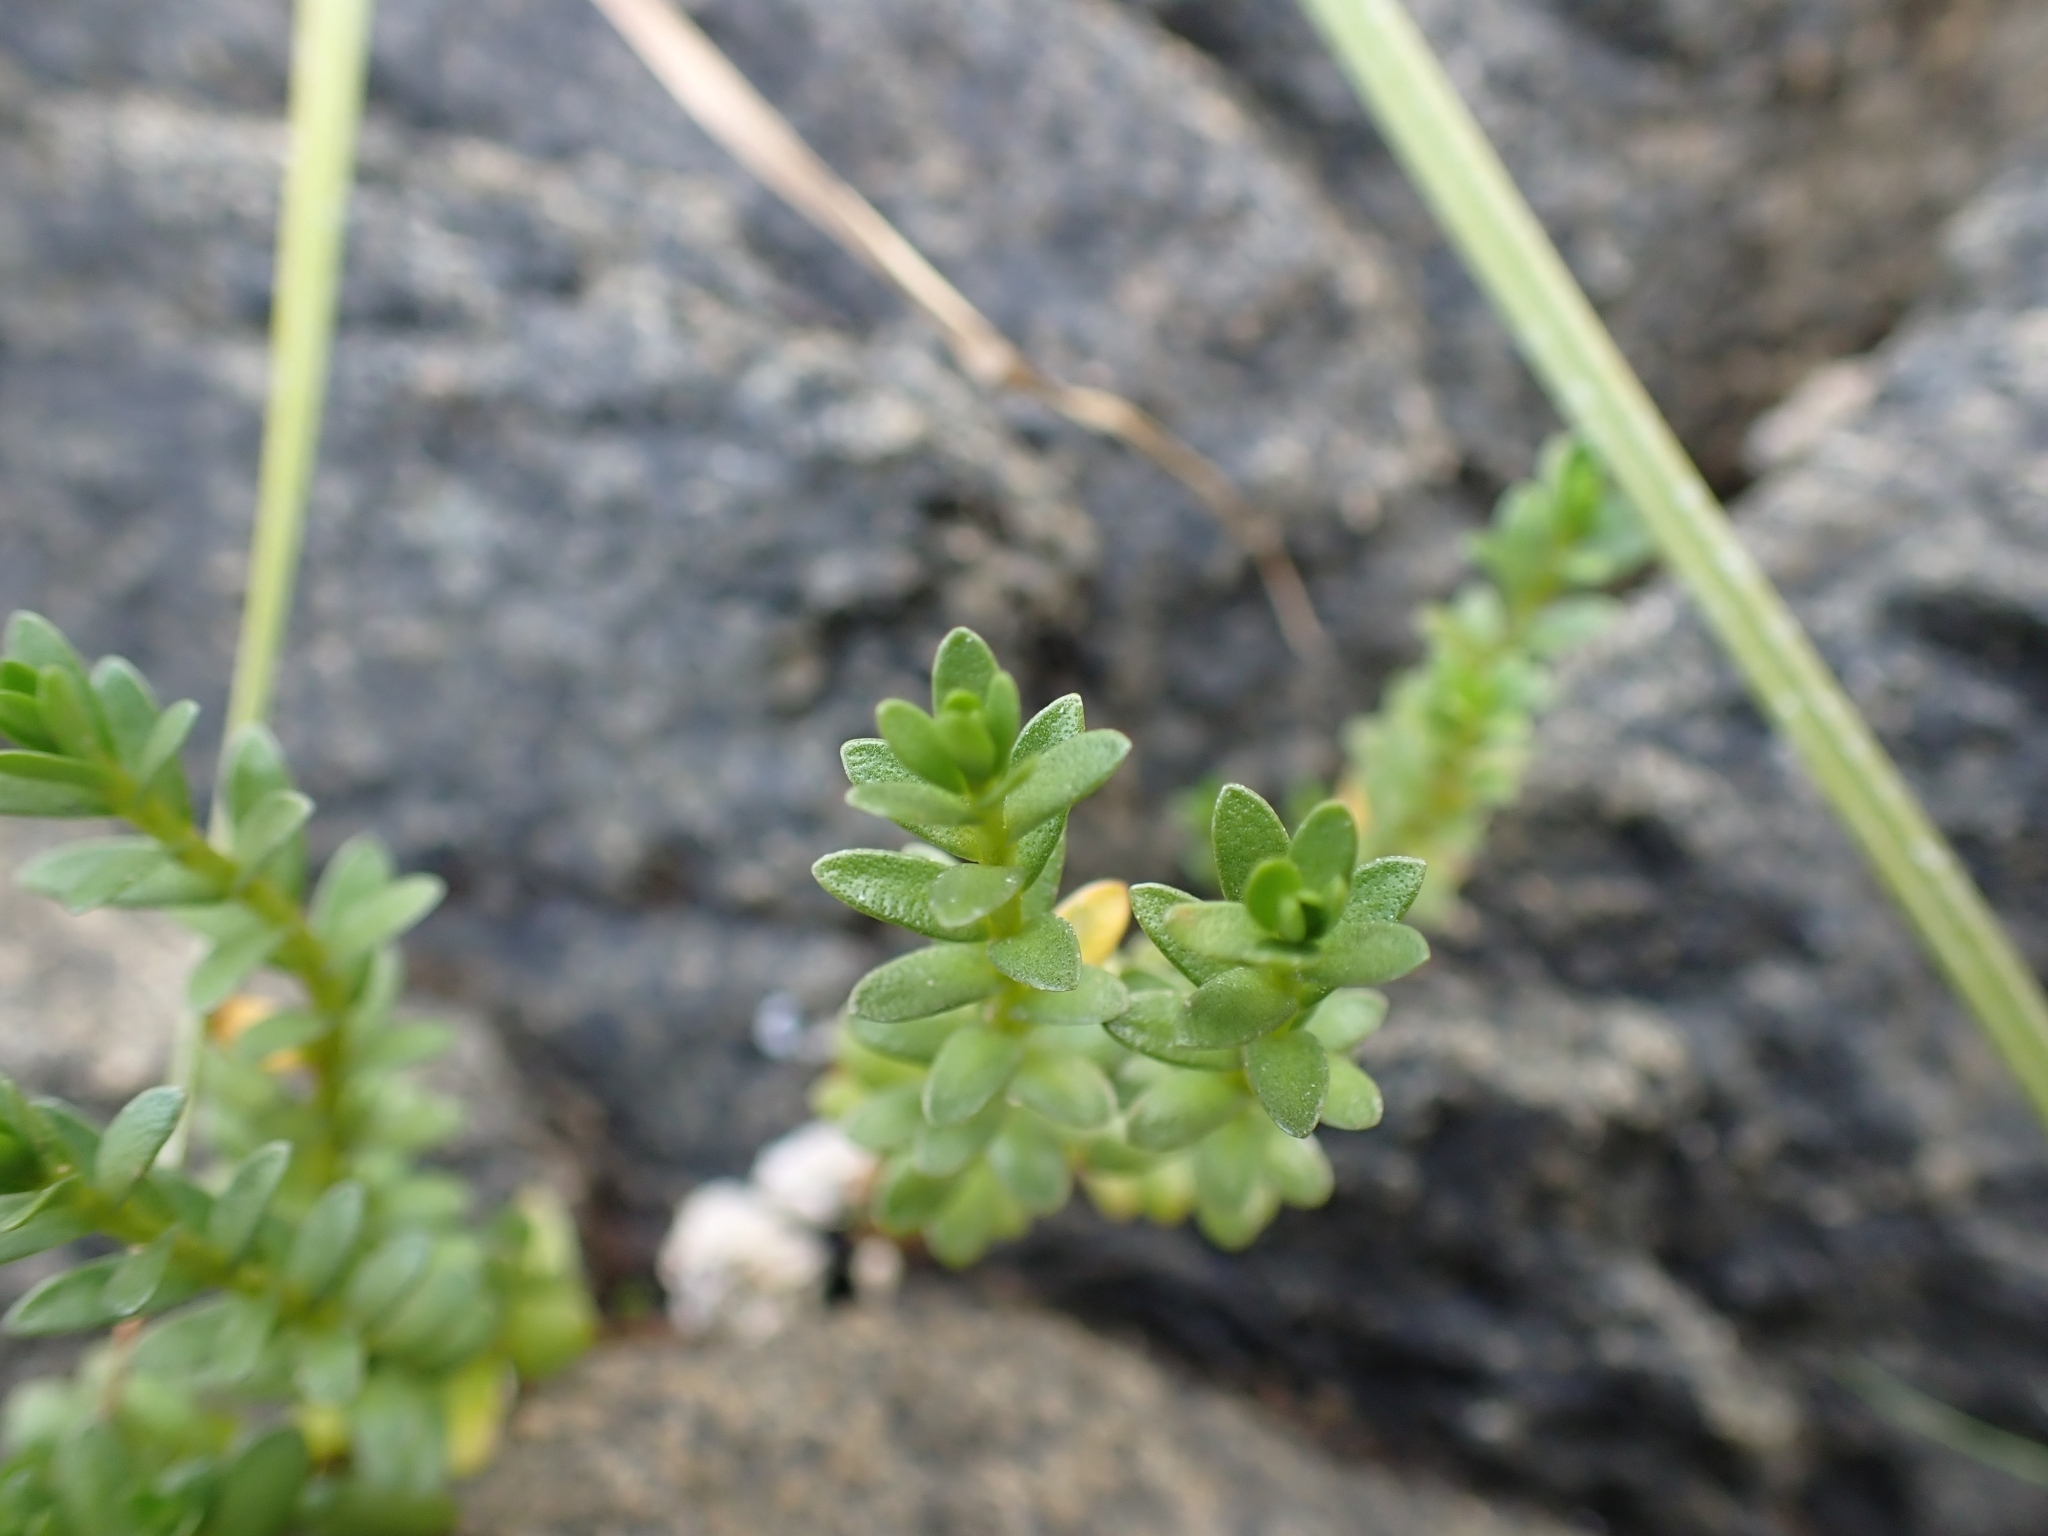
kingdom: Plantae
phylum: Tracheophyta
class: Magnoliopsida
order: Ericales
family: Primulaceae
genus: Lysimachia
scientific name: Lysimachia maritima
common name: Sea milkwort
